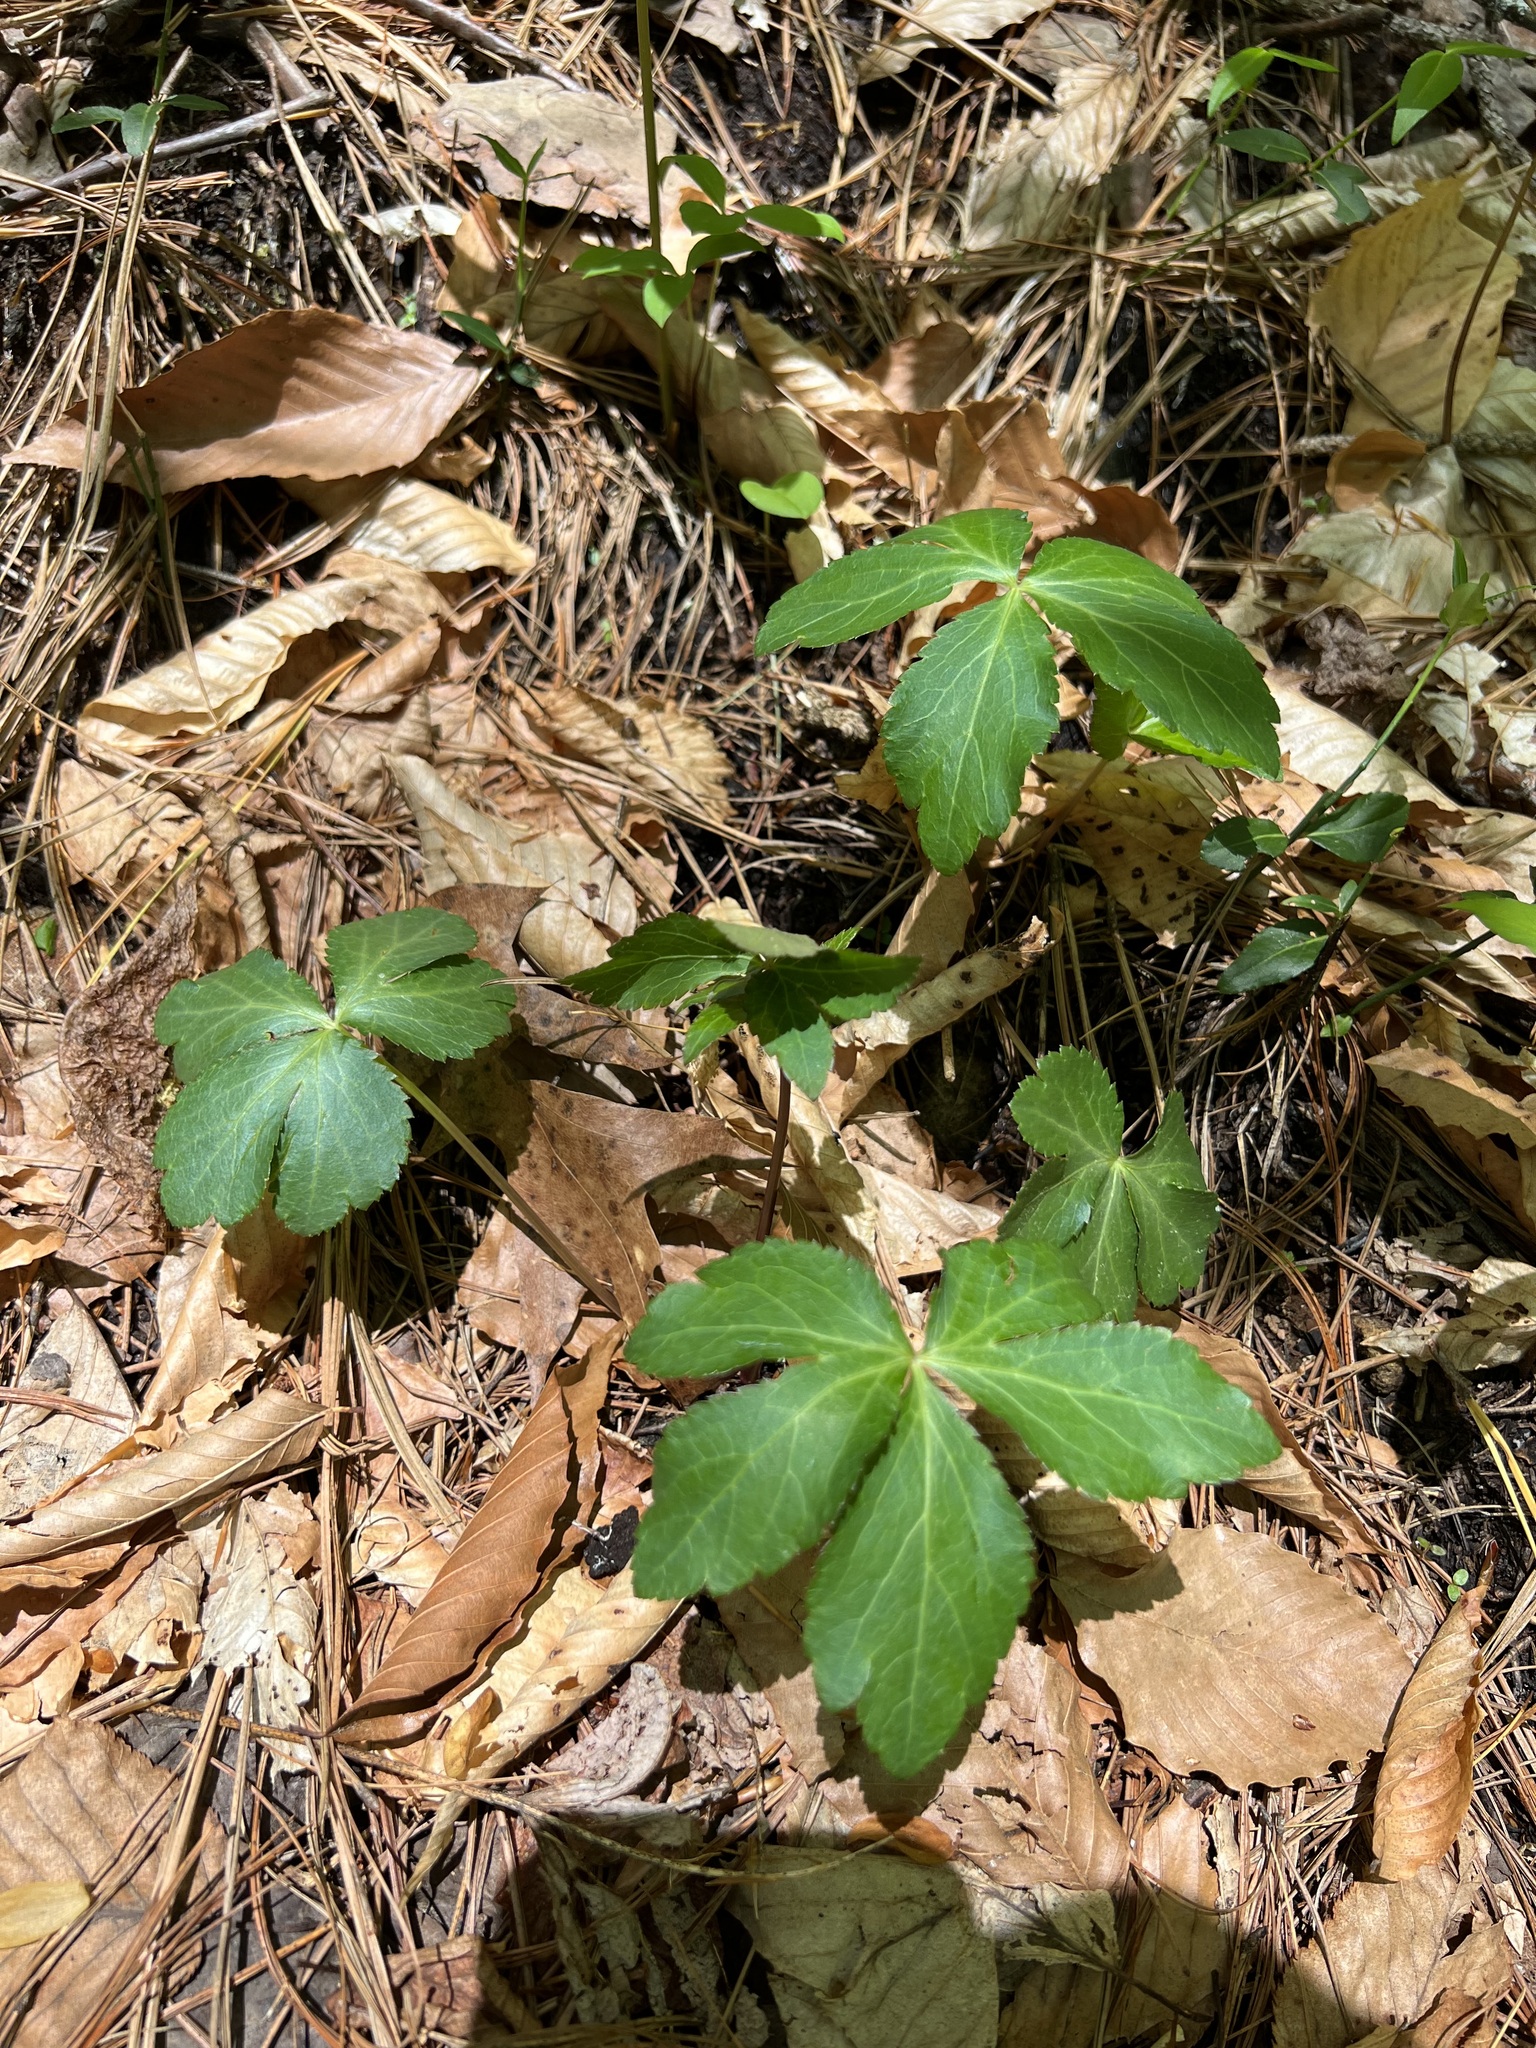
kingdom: Plantae
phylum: Tracheophyta
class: Magnoliopsida
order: Apiales
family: Apiaceae
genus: Sanicula
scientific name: Sanicula smallii
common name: Small's black snakeroot
